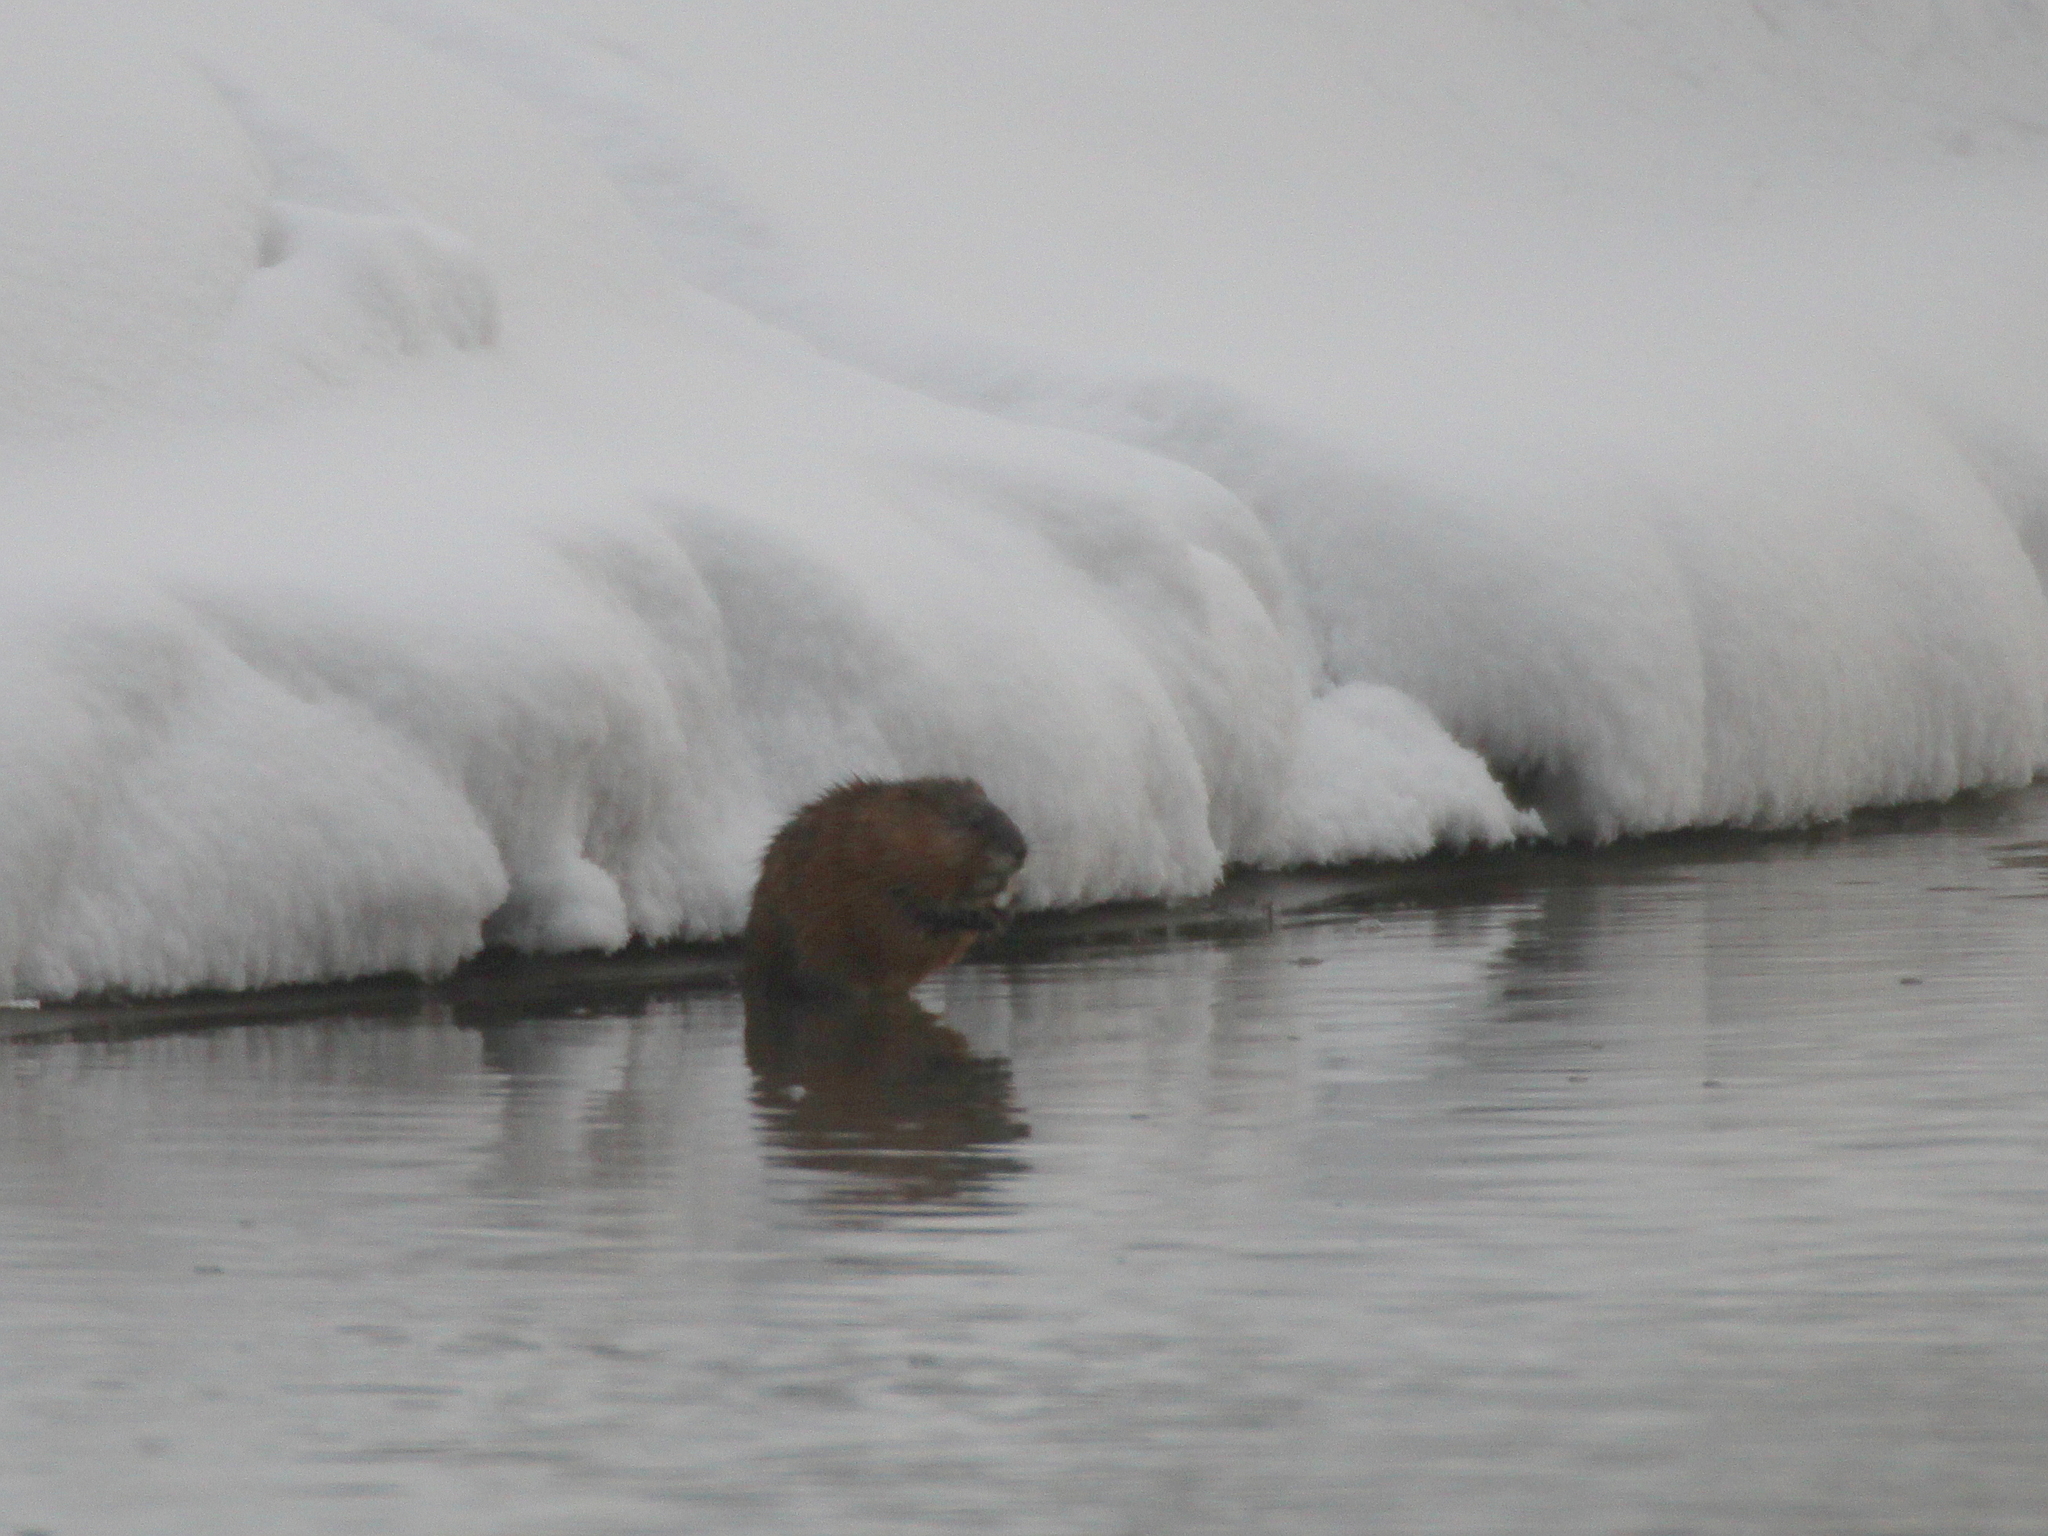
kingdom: Animalia
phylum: Chordata
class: Mammalia
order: Rodentia
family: Cricetidae
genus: Ondatra
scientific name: Ondatra zibethicus
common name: Muskrat
